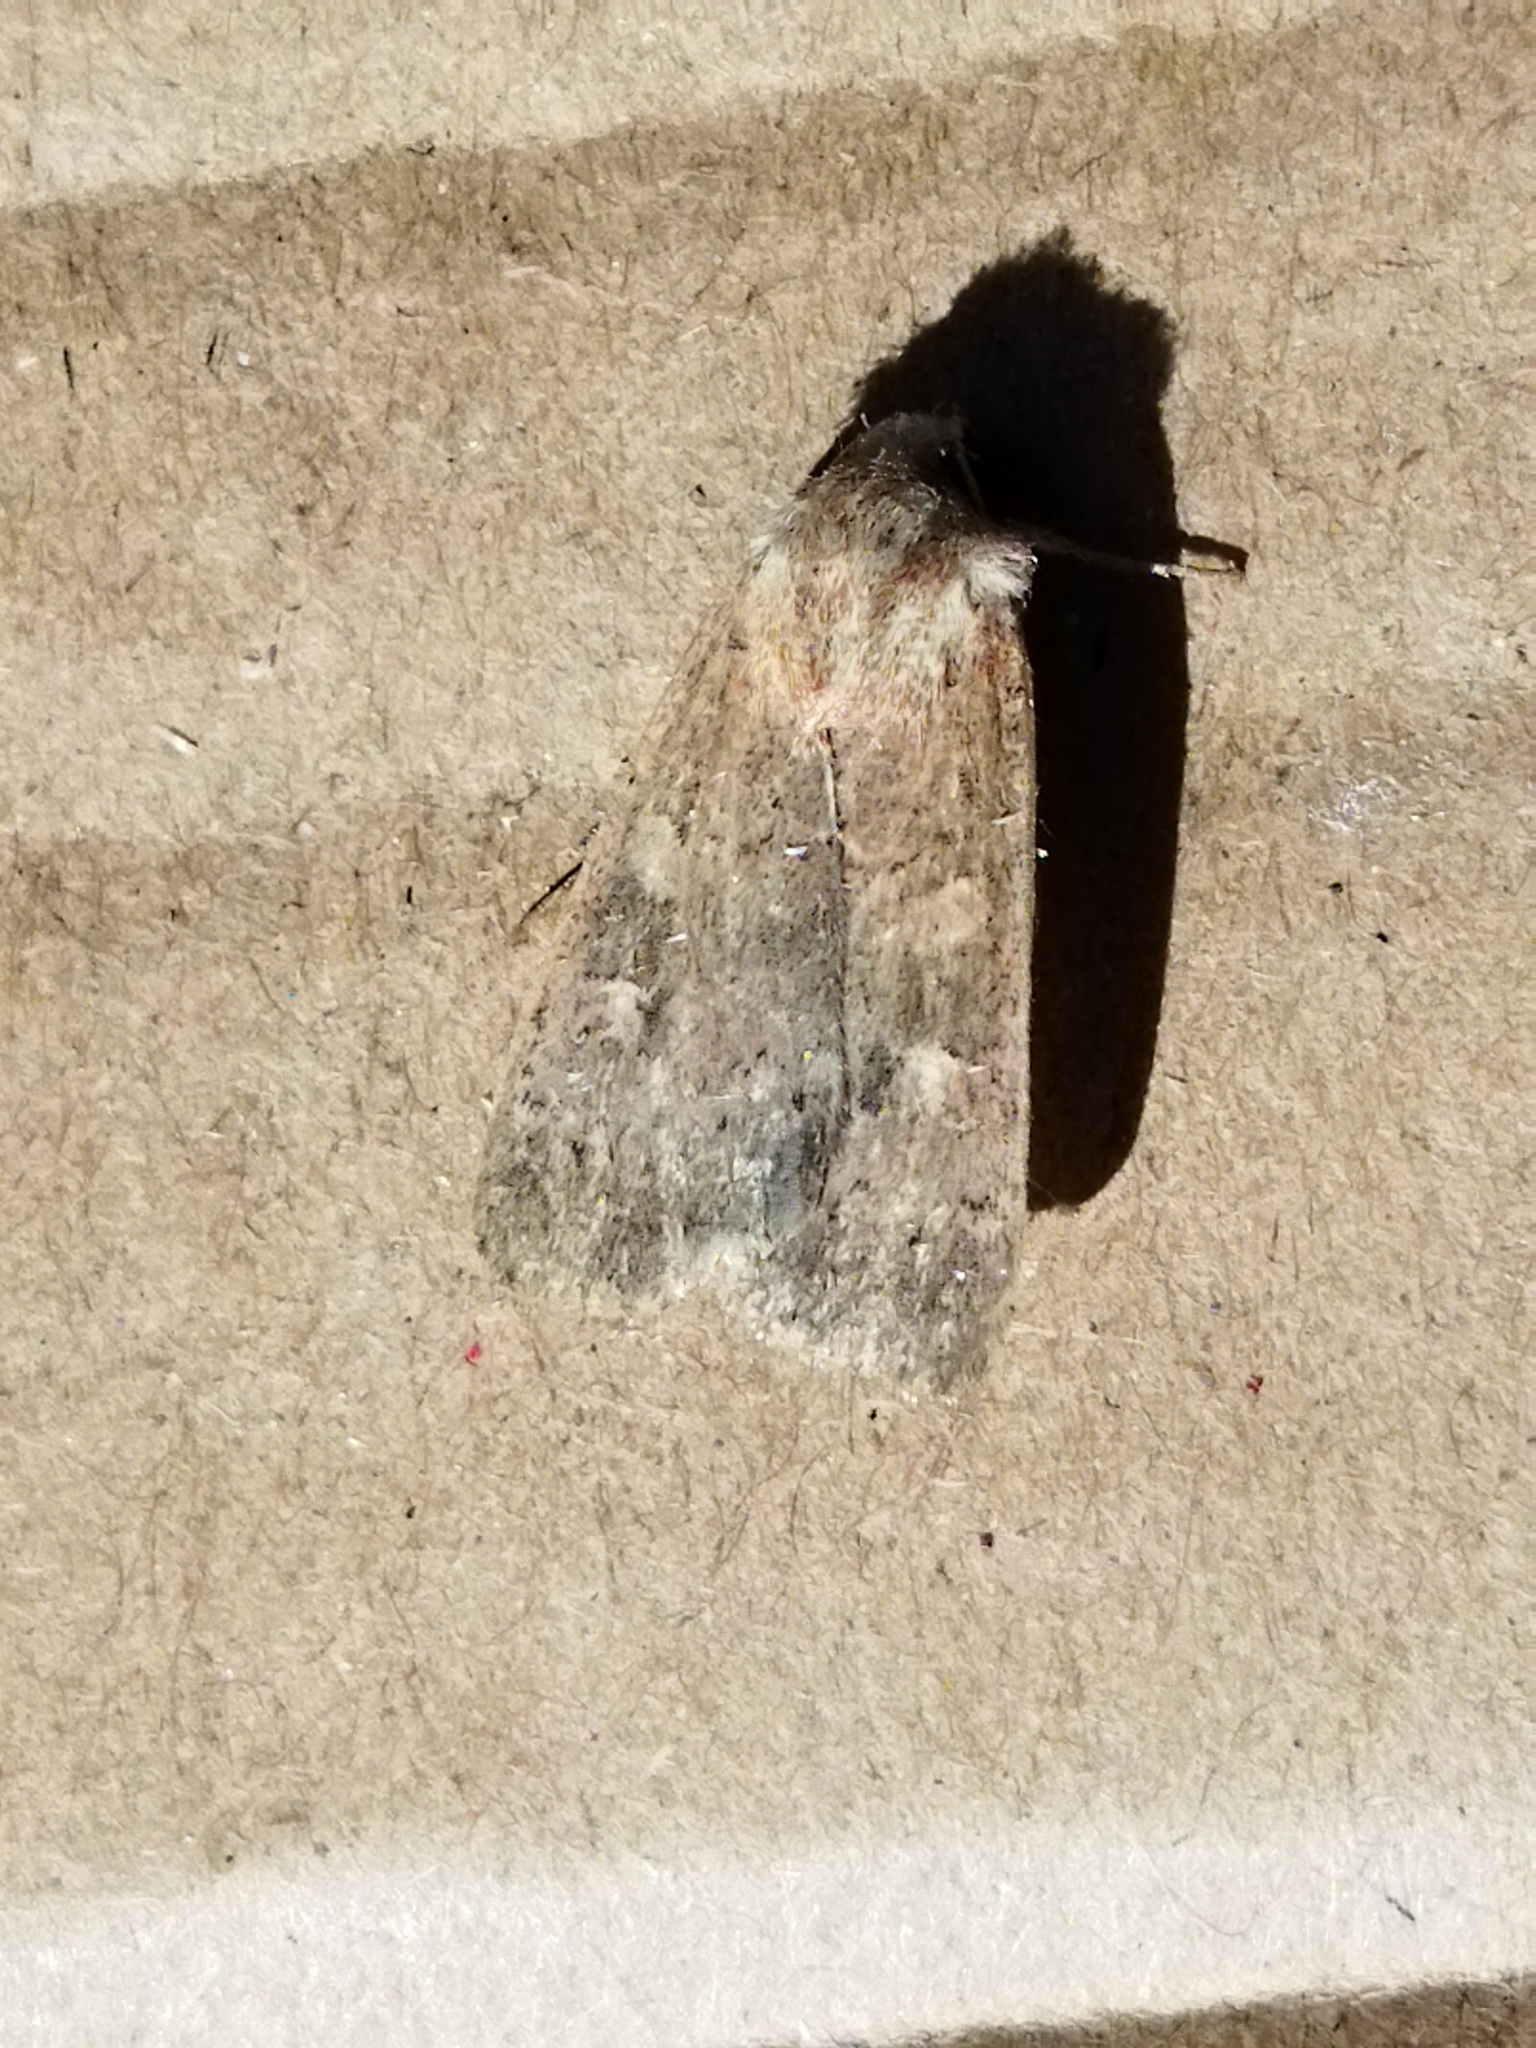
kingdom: Animalia
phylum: Arthropoda
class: Insecta
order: Lepidoptera
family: Noctuidae
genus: Xestia
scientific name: Xestia xanthographa
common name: Square-spot rustic
